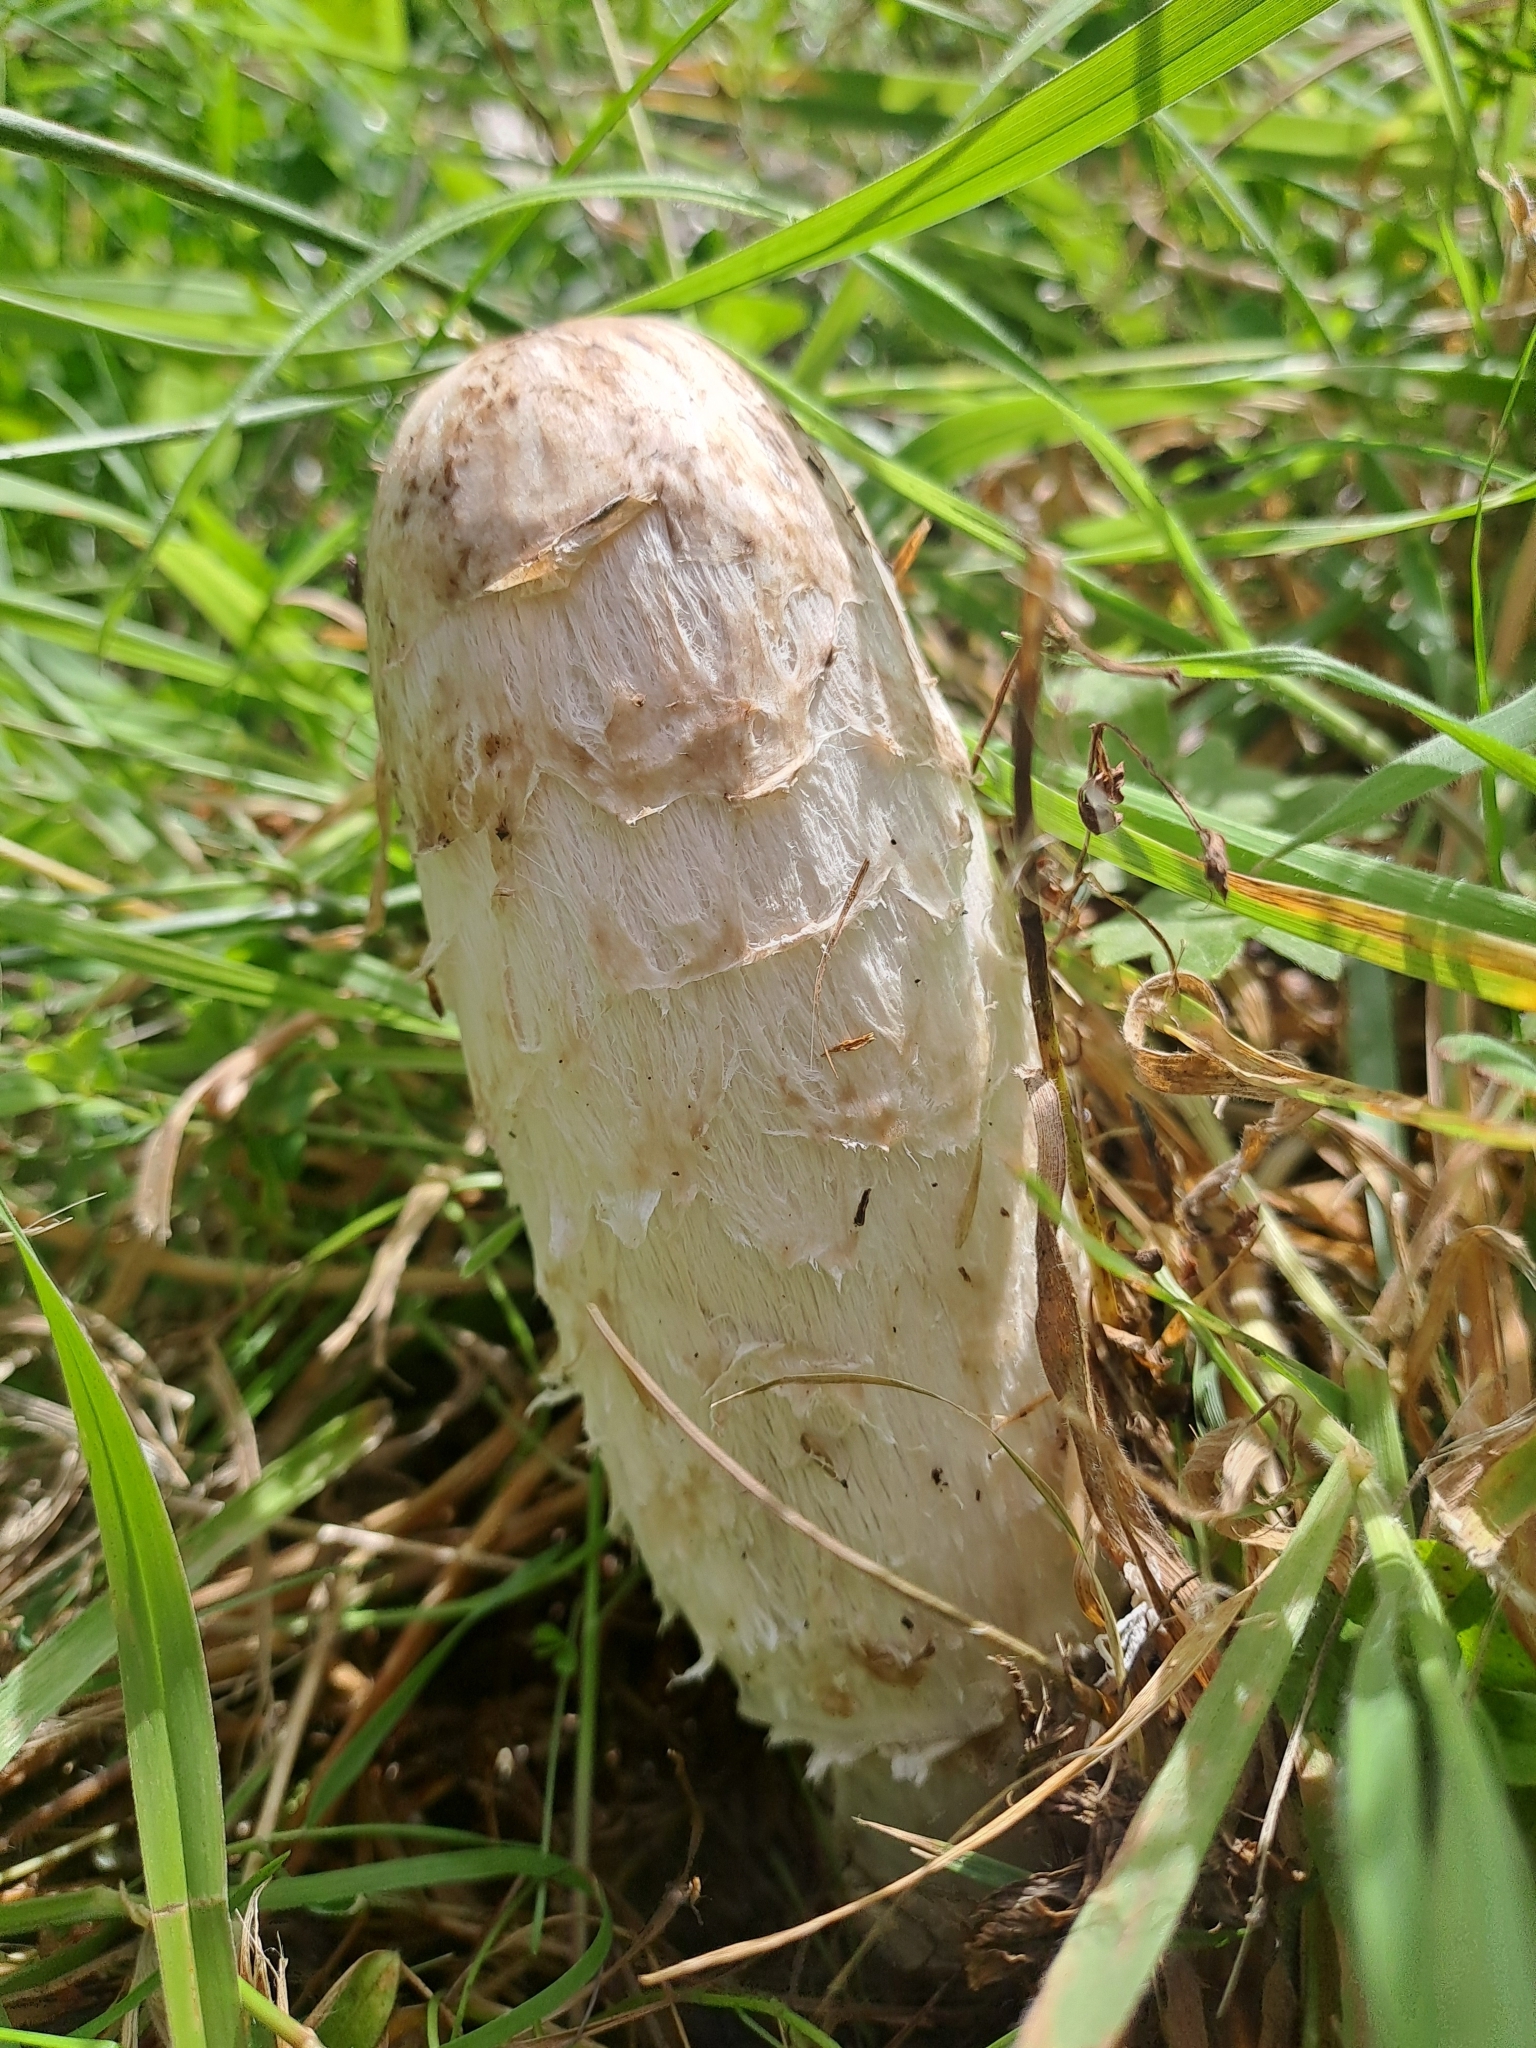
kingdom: Fungi
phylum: Basidiomycota
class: Agaricomycetes
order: Agaricales
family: Agaricaceae
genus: Coprinus
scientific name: Coprinus comatus
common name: Lawyer's wig
